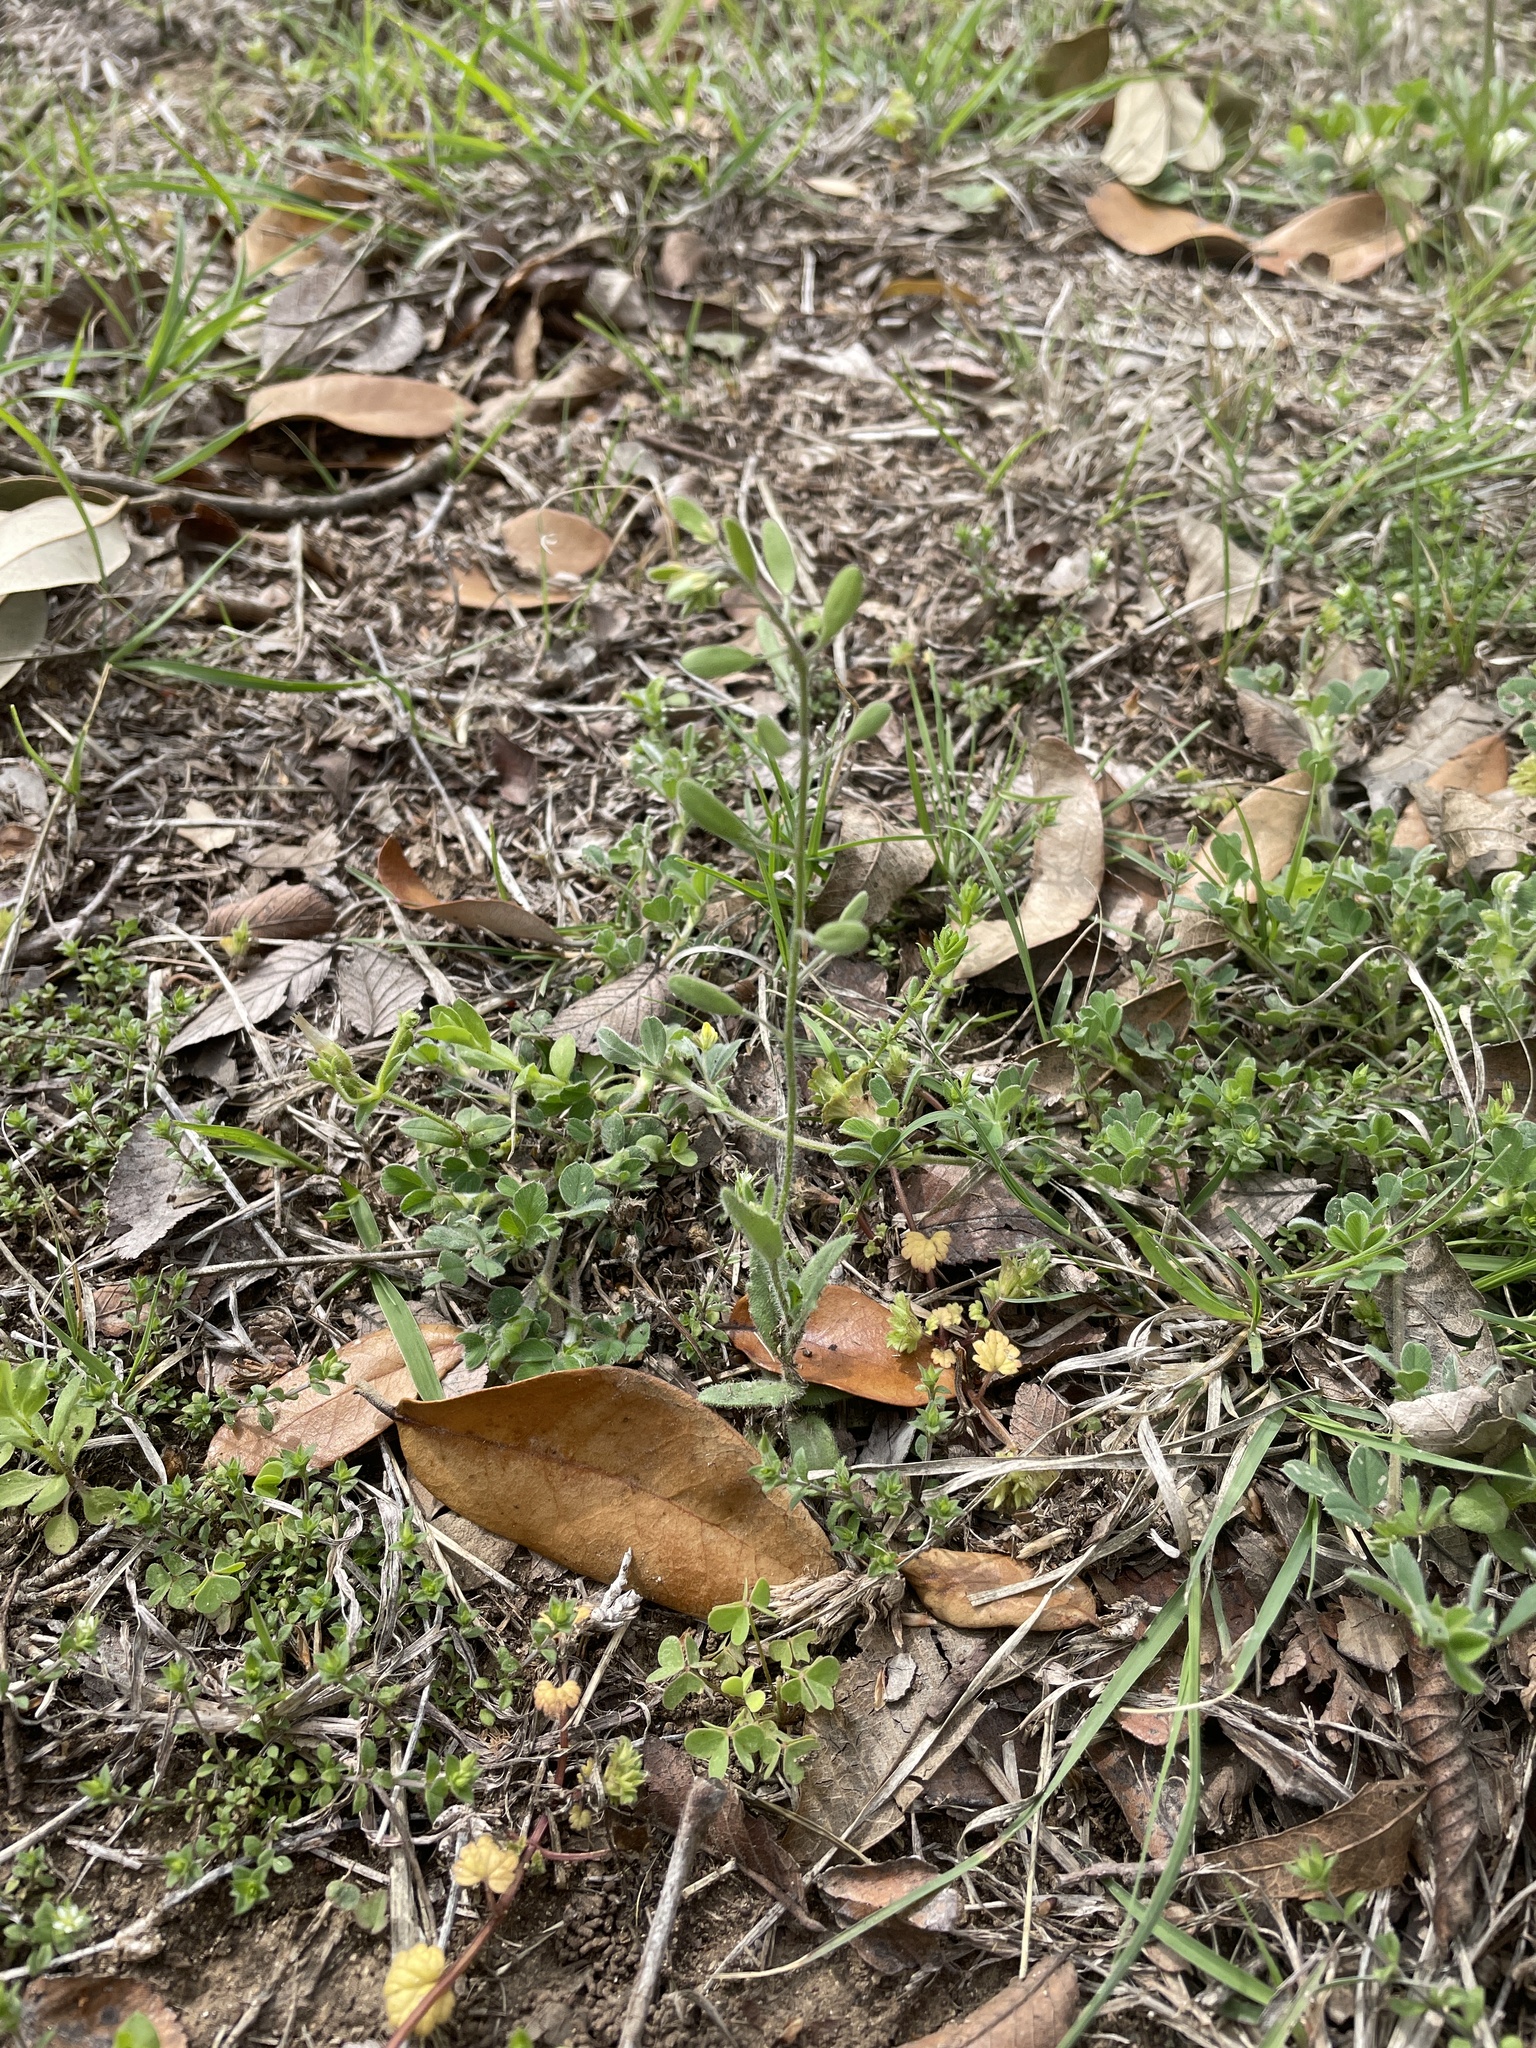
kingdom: Plantae
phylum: Tracheophyta
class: Magnoliopsida
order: Brassicales
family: Brassicaceae
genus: Tomostima
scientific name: Tomostima platycarpa
